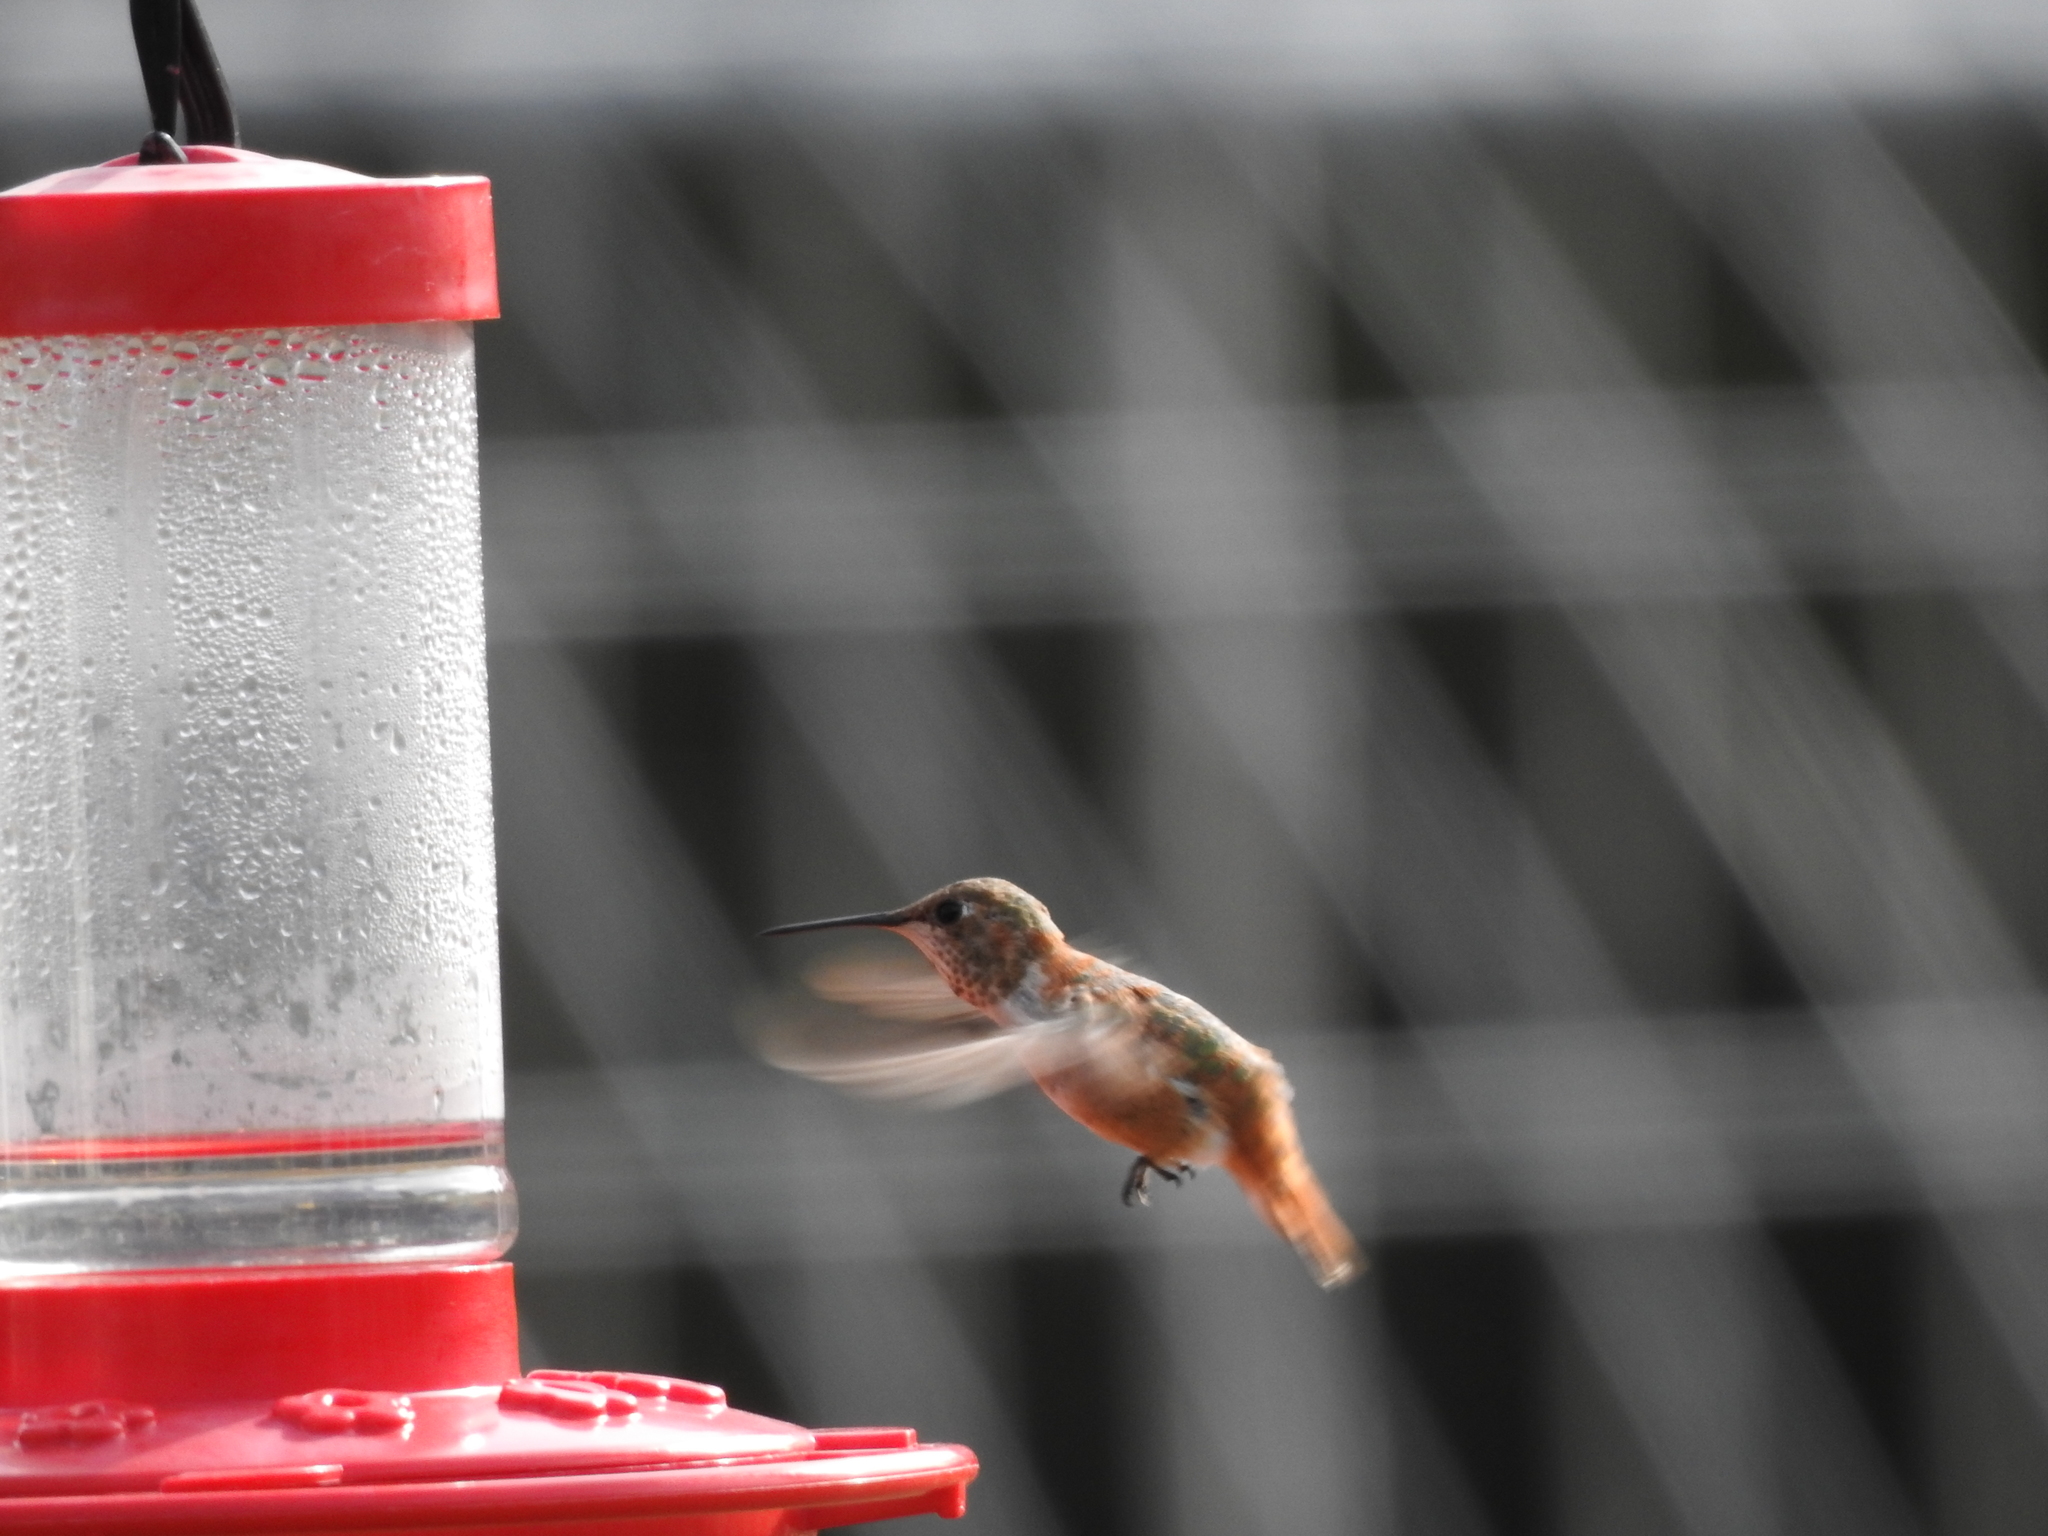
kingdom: Animalia
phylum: Chordata
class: Aves
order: Apodiformes
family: Trochilidae
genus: Selasphorus
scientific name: Selasphorus rufus
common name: Rufous hummingbird
